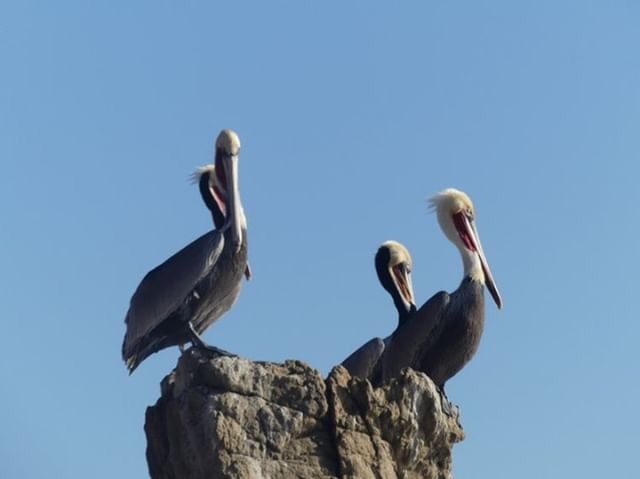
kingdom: Animalia
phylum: Chordata
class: Aves
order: Pelecaniformes
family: Pelecanidae
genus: Pelecanus
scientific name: Pelecanus occidentalis
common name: Brown pelican
